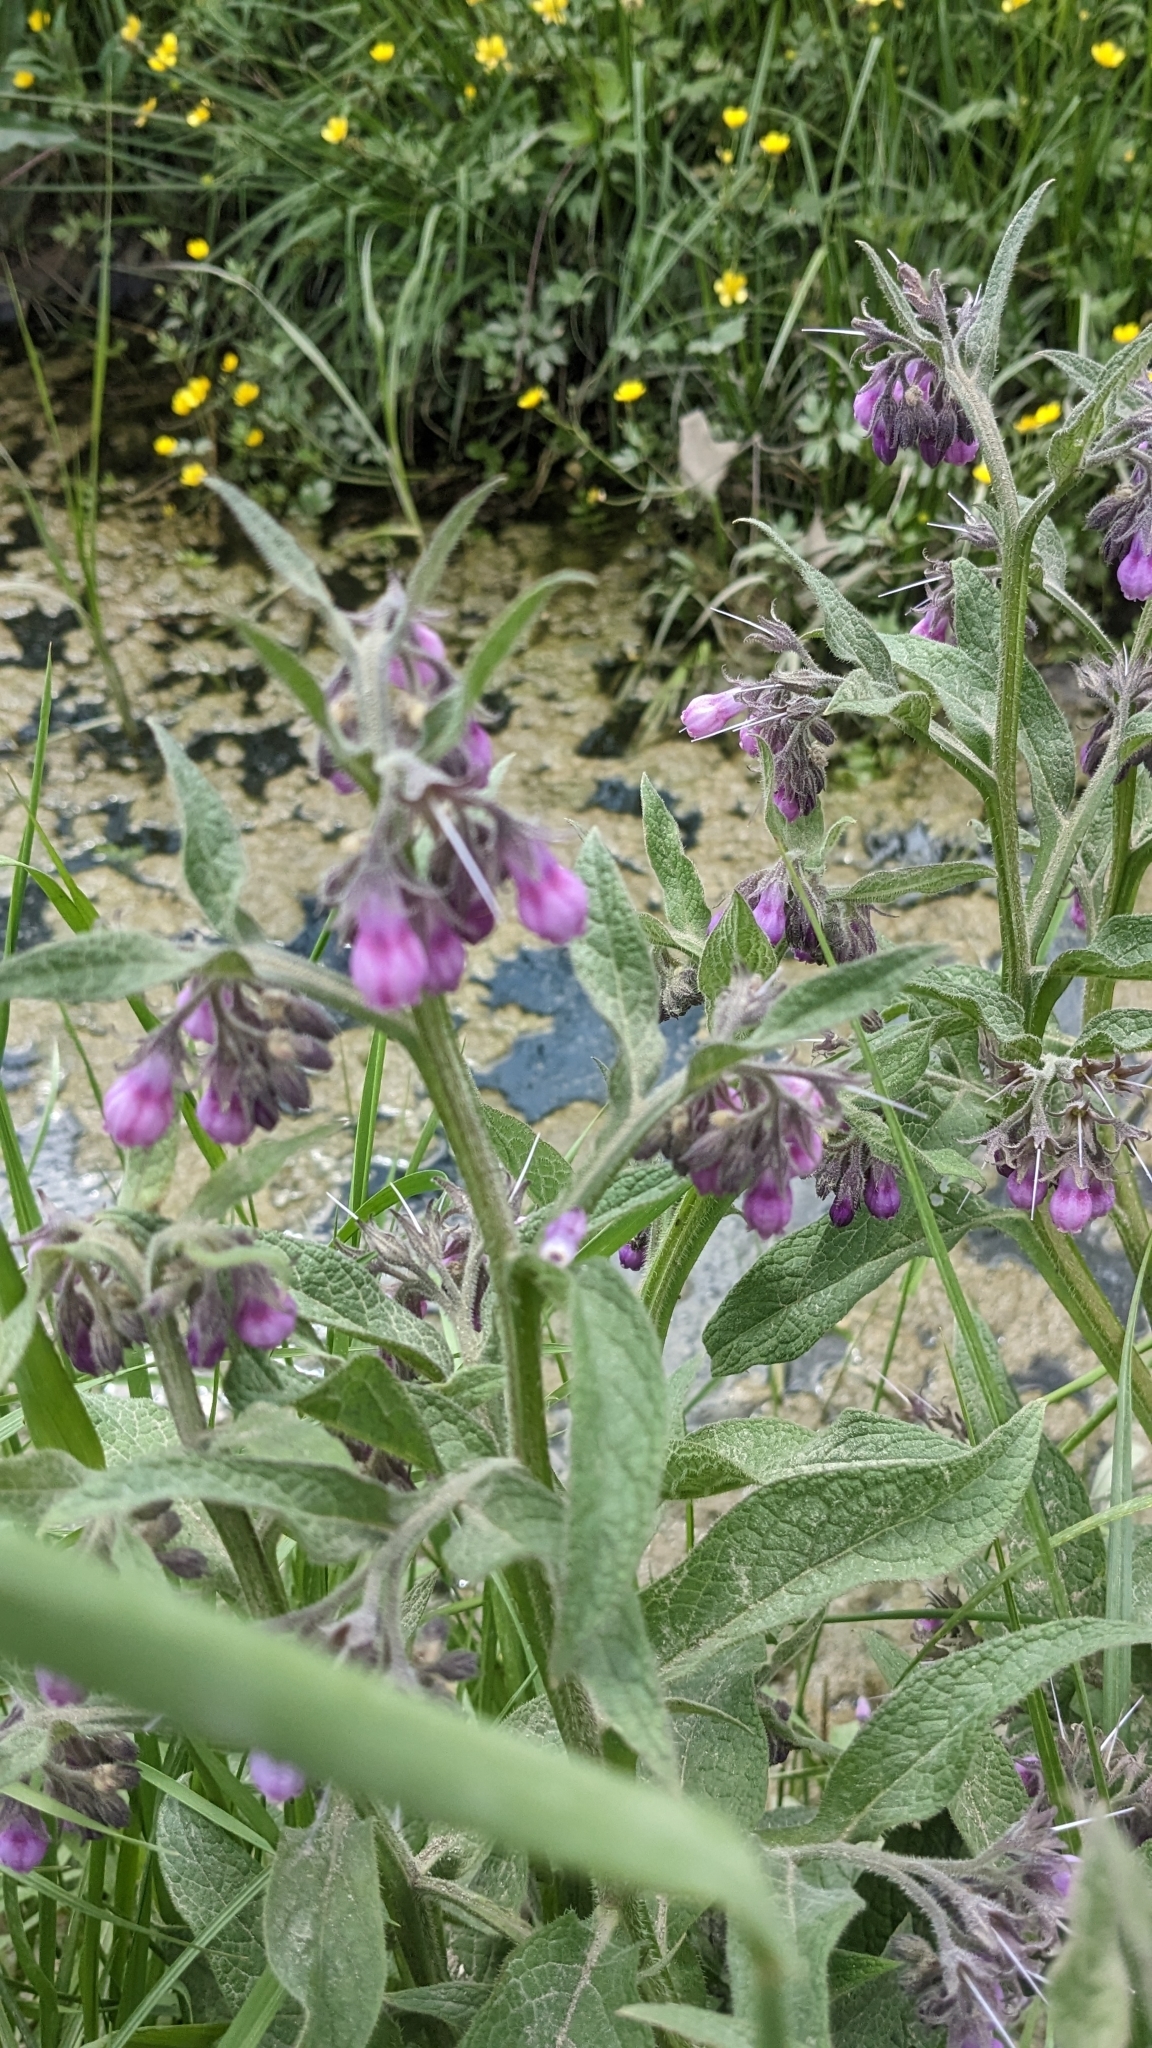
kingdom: Plantae
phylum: Tracheophyta
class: Magnoliopsida
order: Boraginales
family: Boraginaceae
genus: Symphytum
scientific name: Symphytum officinale
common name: Common comfrey
